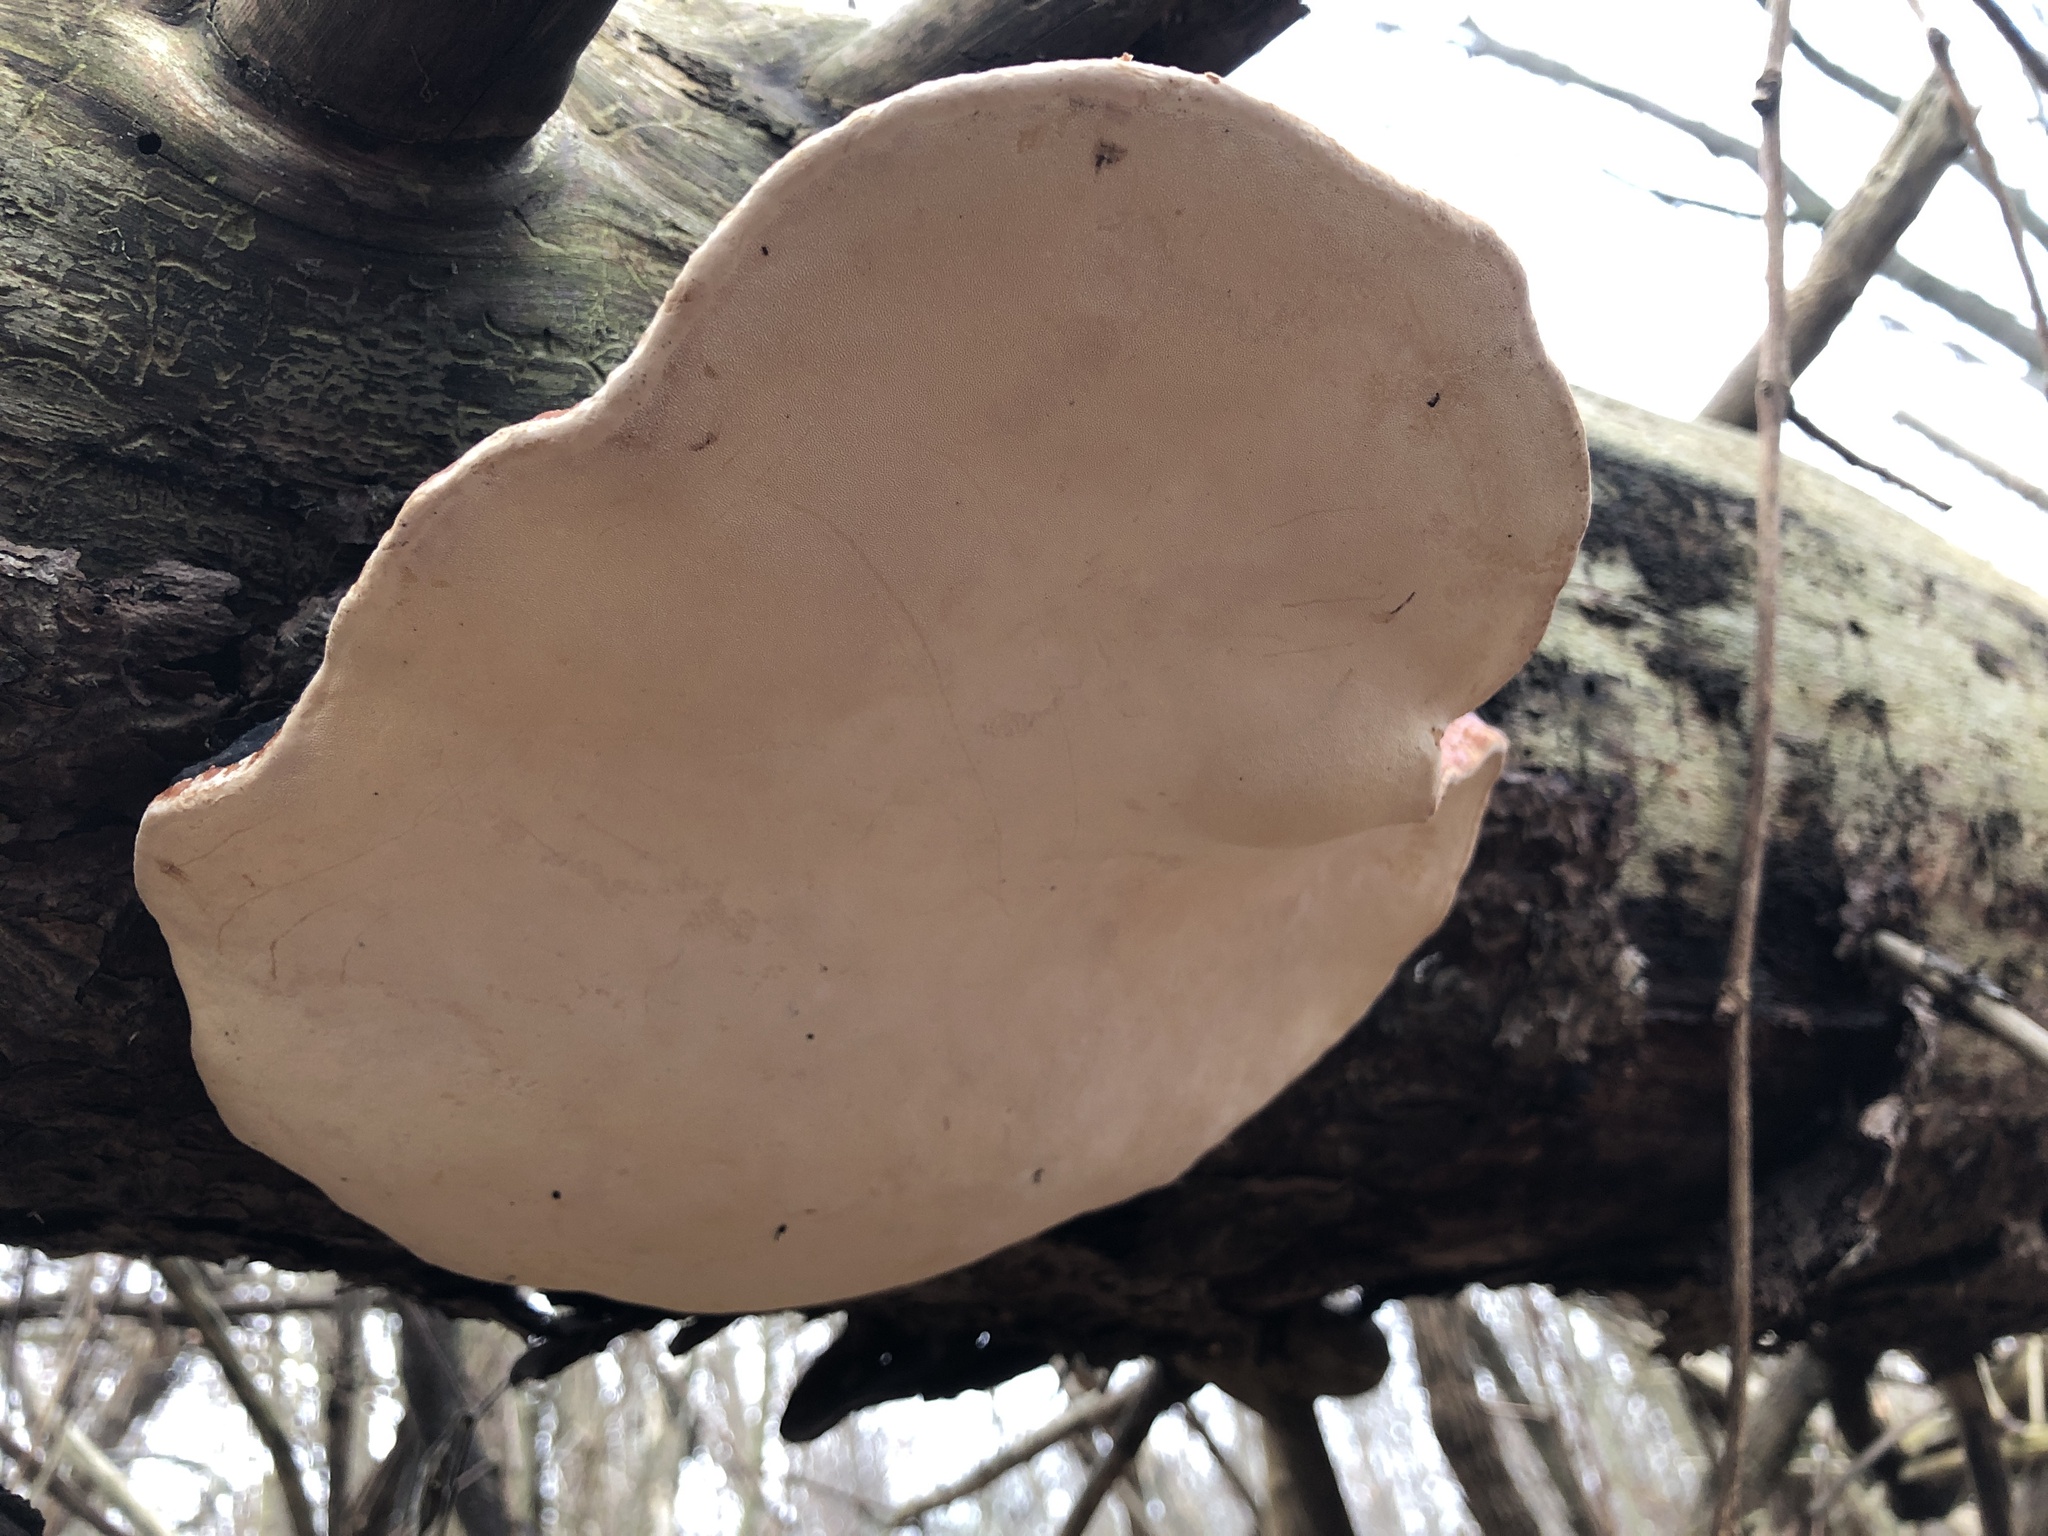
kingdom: Fungi
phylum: Basidiomycota
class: Agaricomycetes
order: Polyporales
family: Fomitopsidaceae
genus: Fomitopsis
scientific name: Fomitopsis mounceae
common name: Northern red belt
